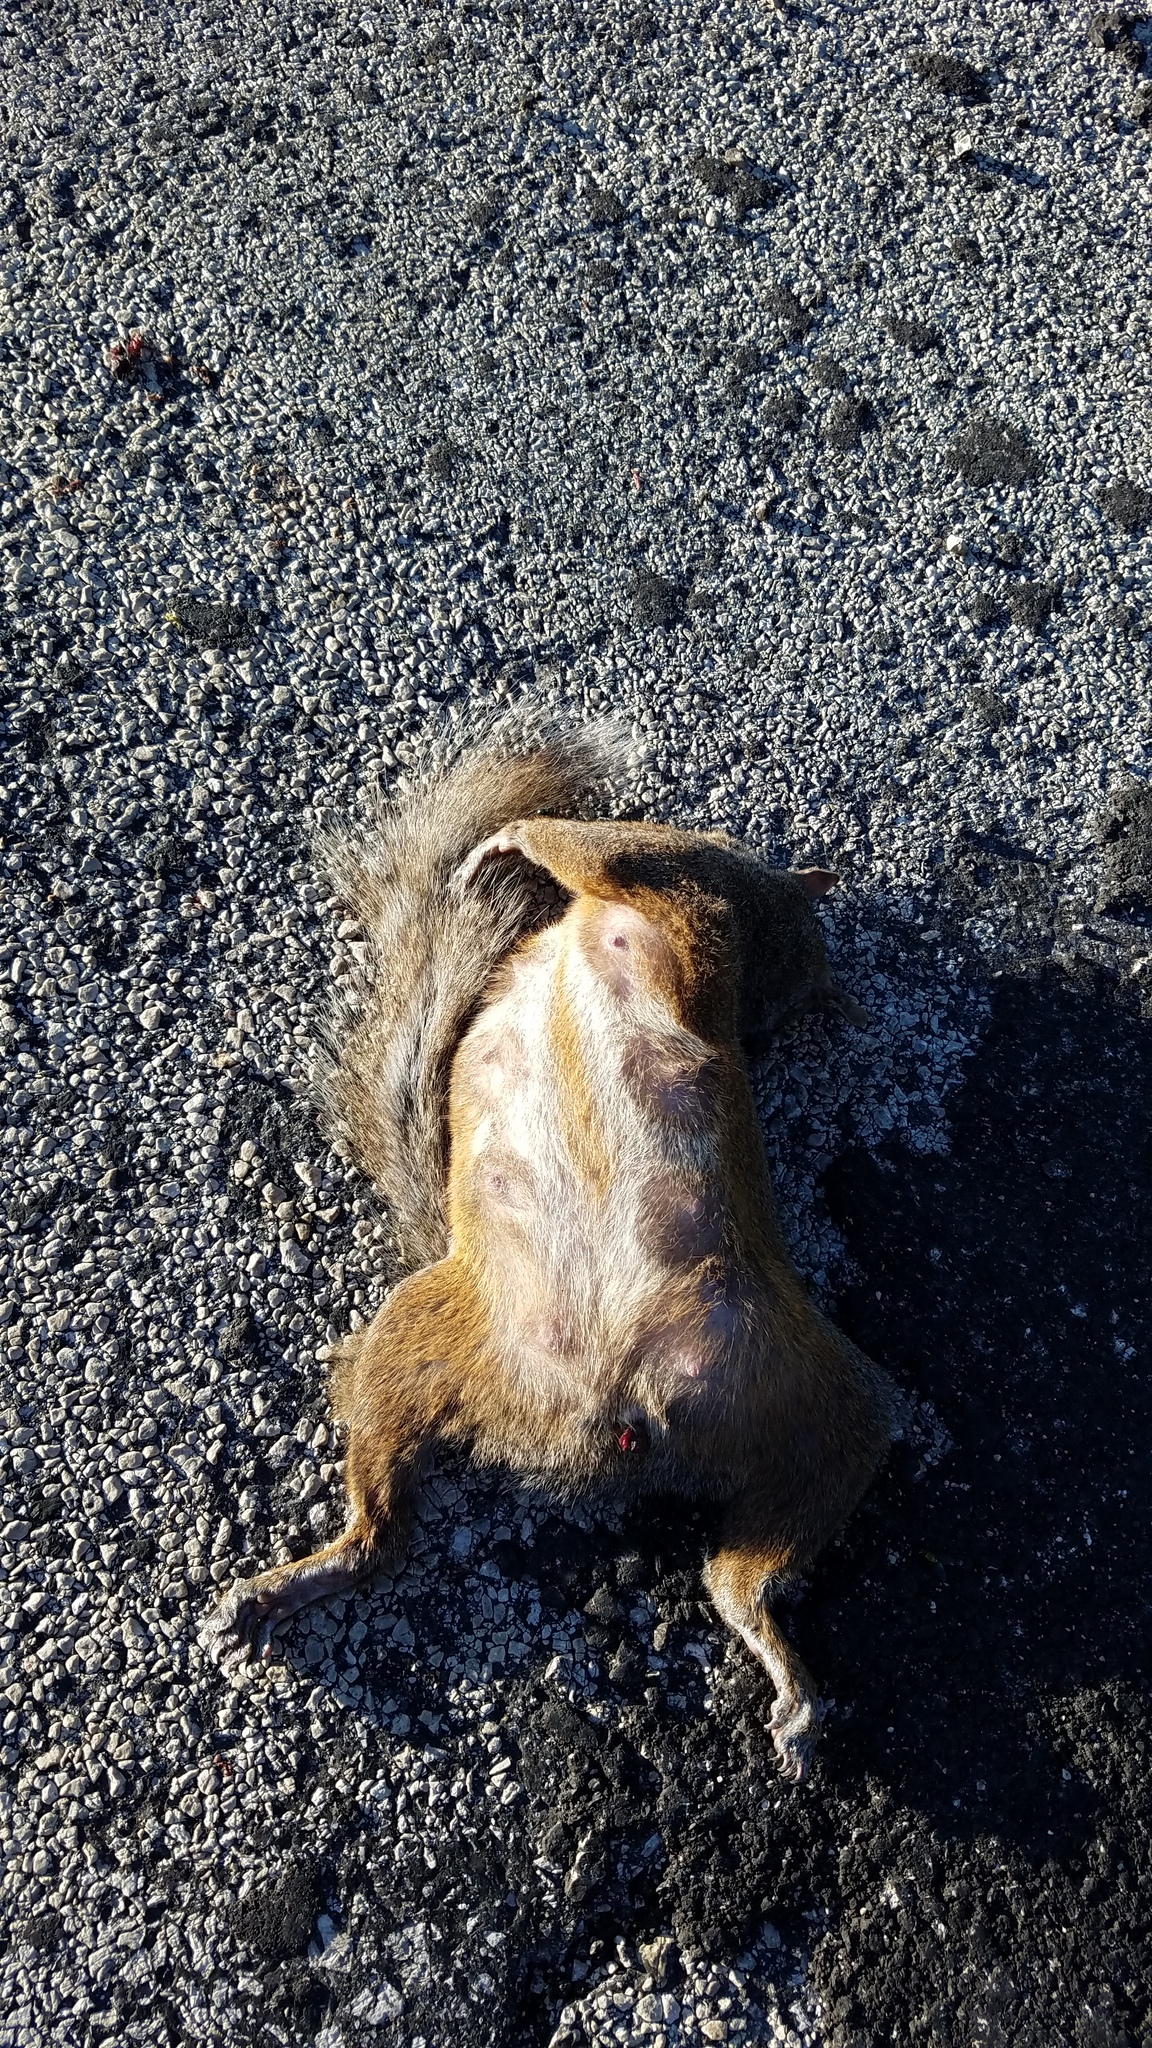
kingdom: Animalia
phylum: Chordata
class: Mammalia
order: Rodentia
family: Sciuridae
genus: Sciurus
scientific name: Sciurus carolinensis
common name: Eastern gray squirrel
